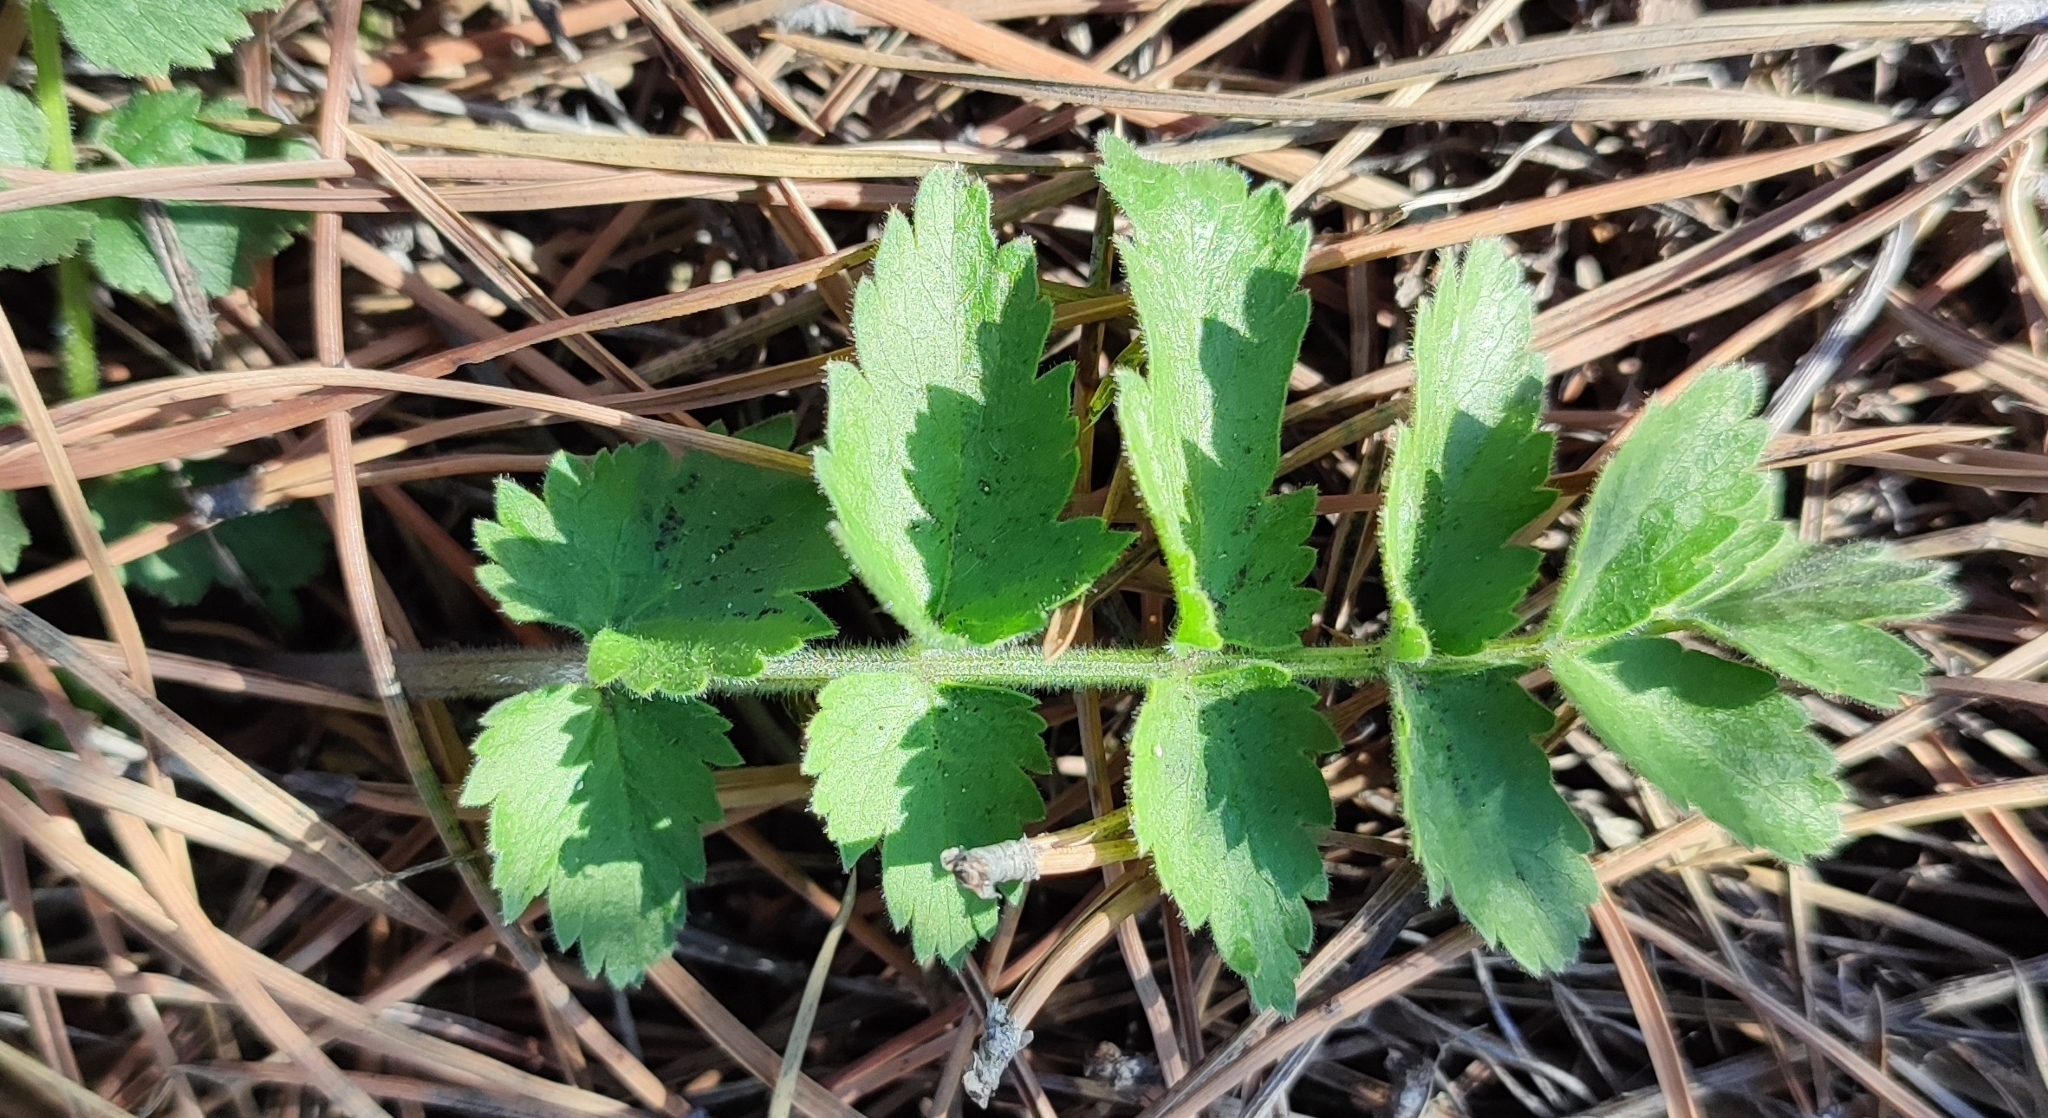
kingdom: Plantae
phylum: Tracheophyta
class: Magnoliopsida
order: Apiales
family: Apiaceae
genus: Pimpinella
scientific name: Pimpinella saxifraga
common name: Burnet-saxifrage
